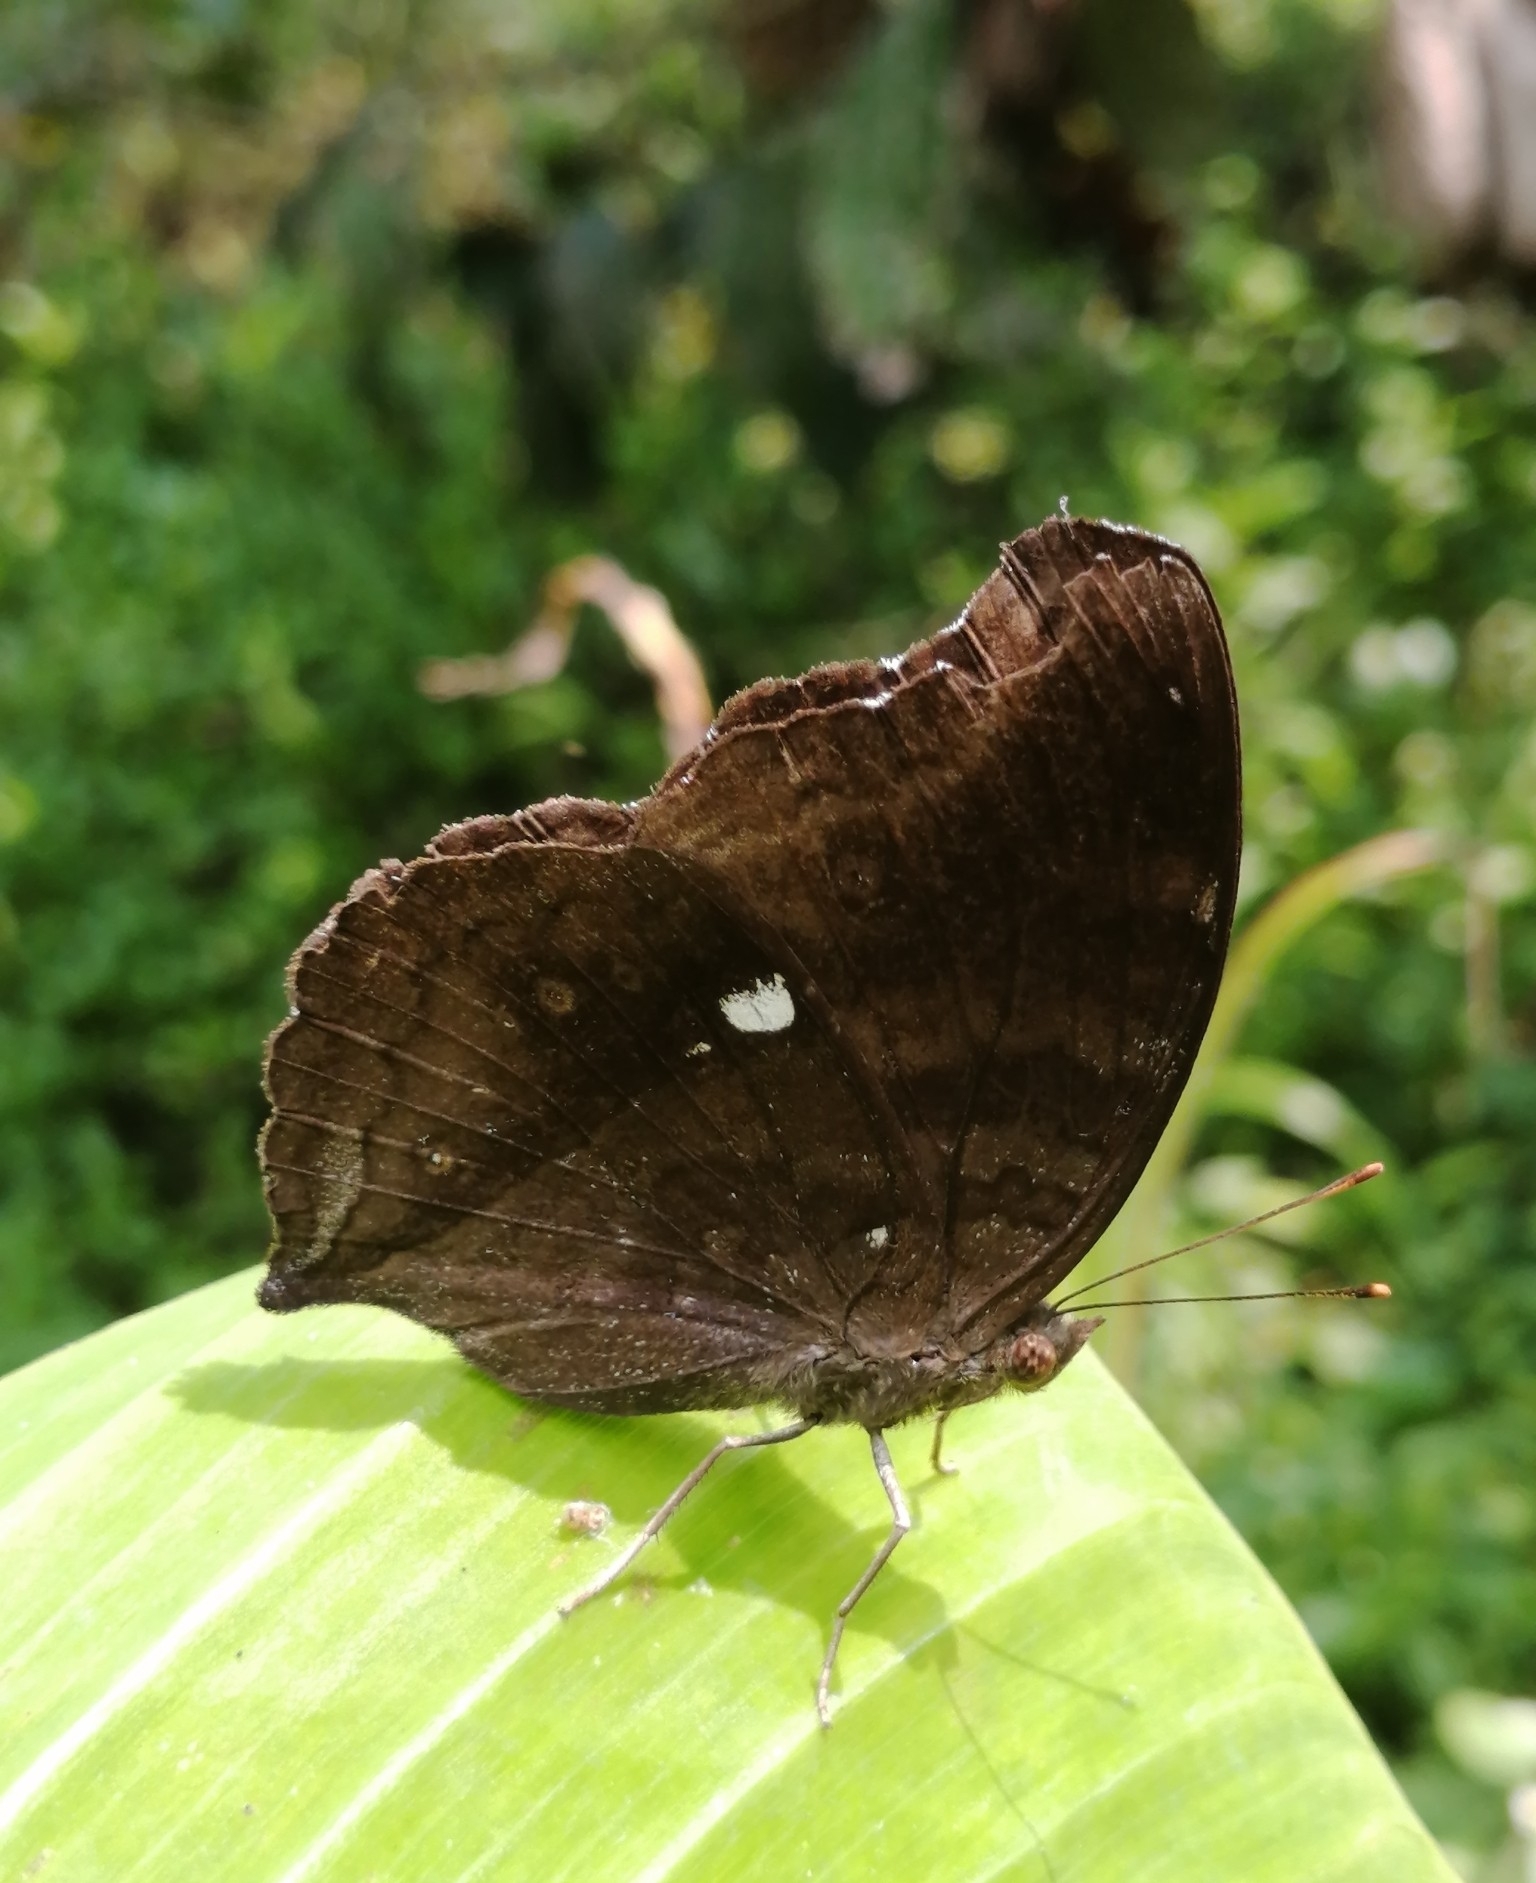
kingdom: Animalia
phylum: Arthropoda
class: Insecta
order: Lepidoptera
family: Nymphalidae
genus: Junonia
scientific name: Junonia iphita
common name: Chocolate pansy
